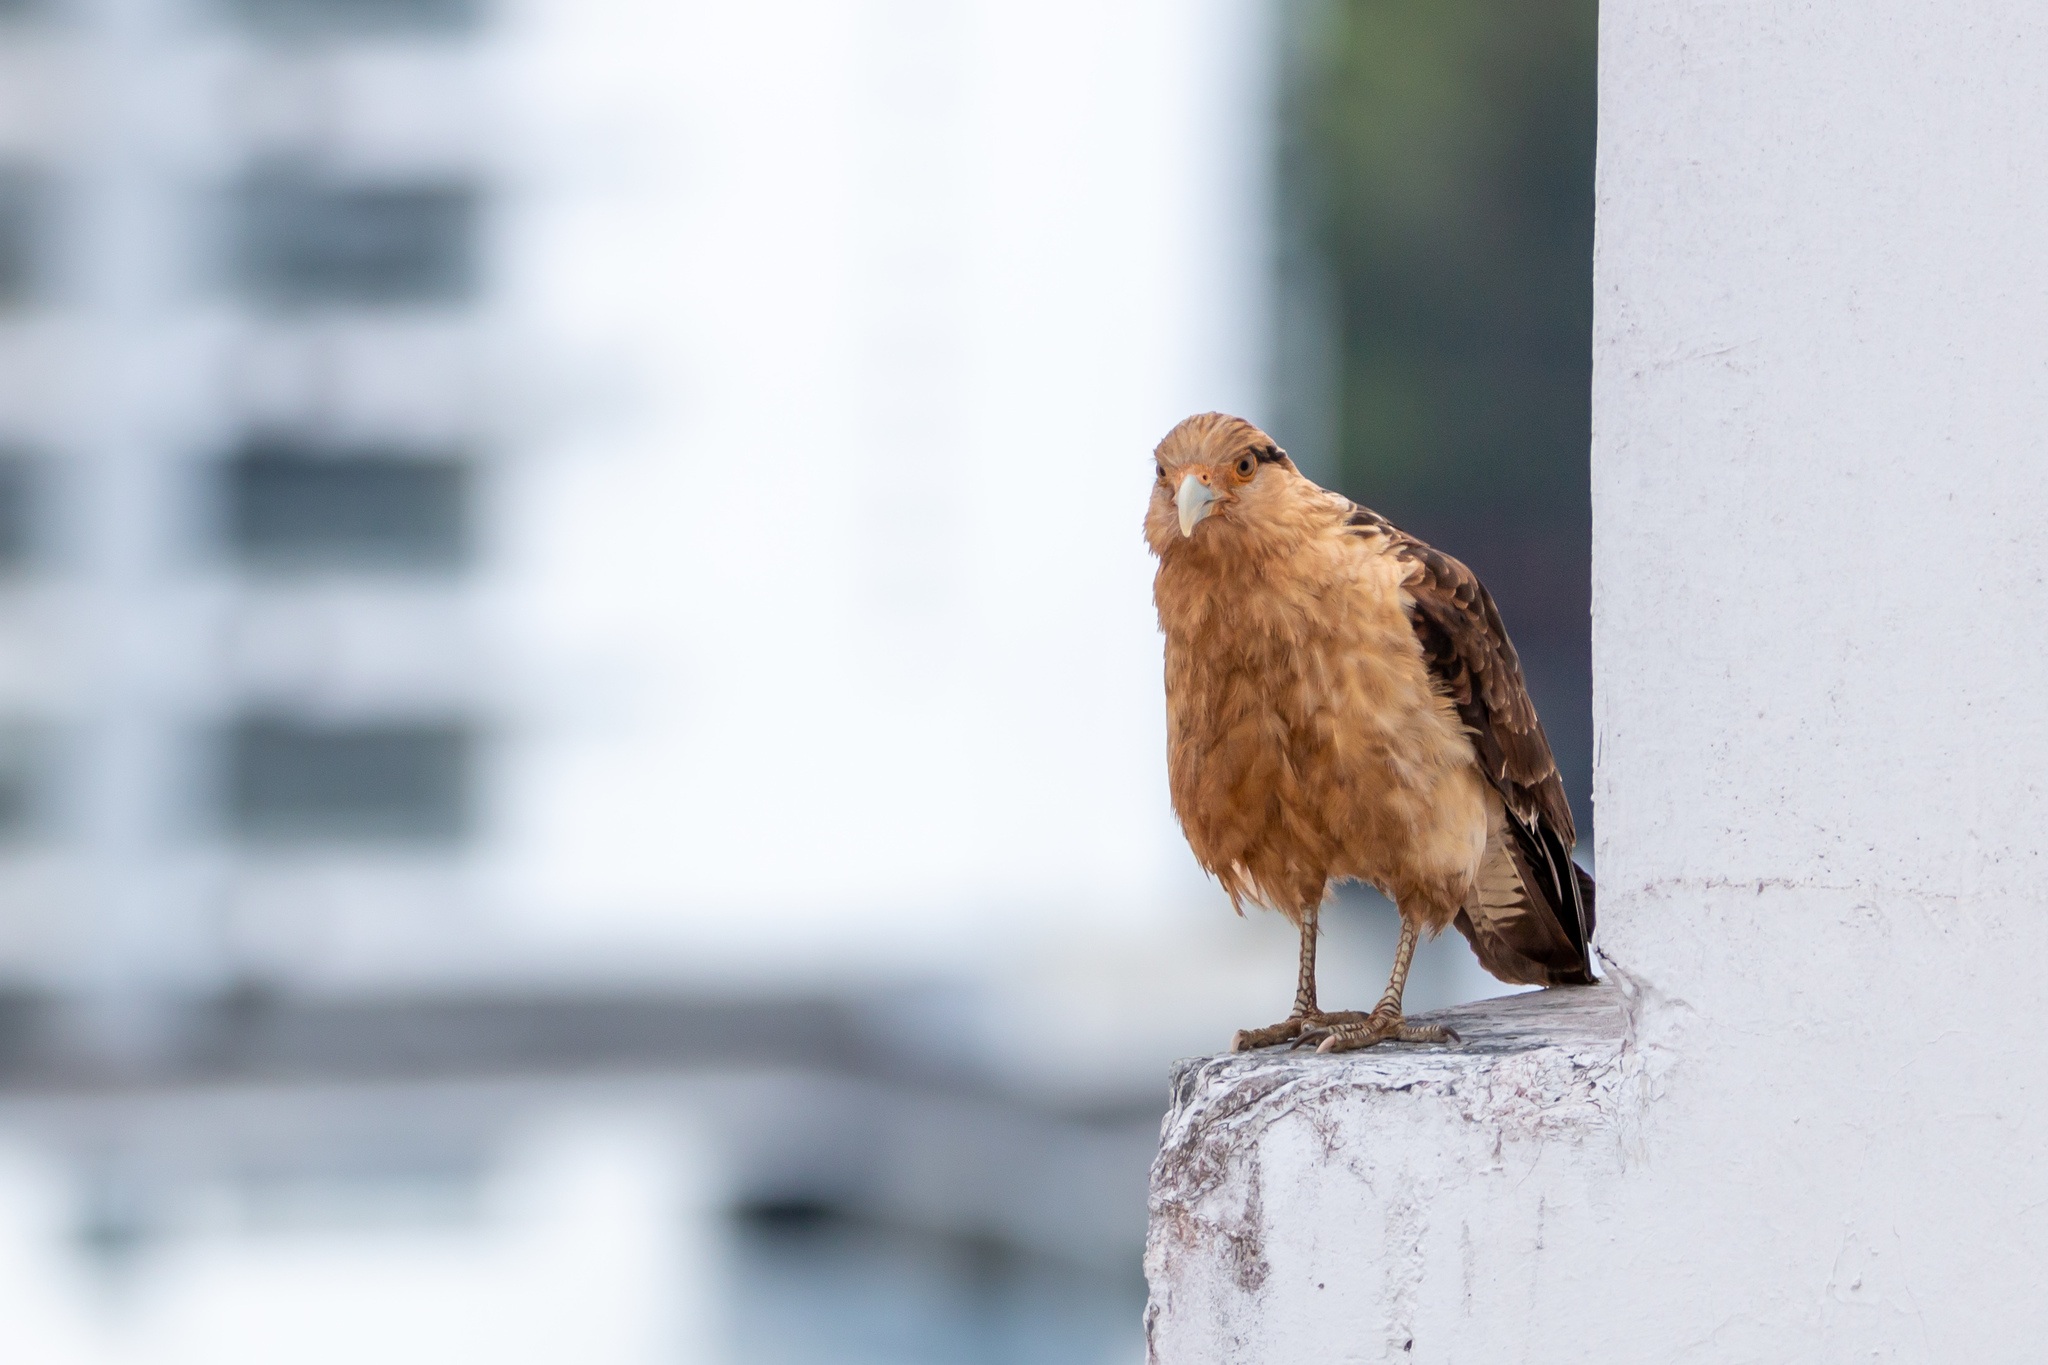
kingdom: Animalia
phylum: Chordata
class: Aves
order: Falconiformes
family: Falconidae
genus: Daptrius
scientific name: Daptrius
